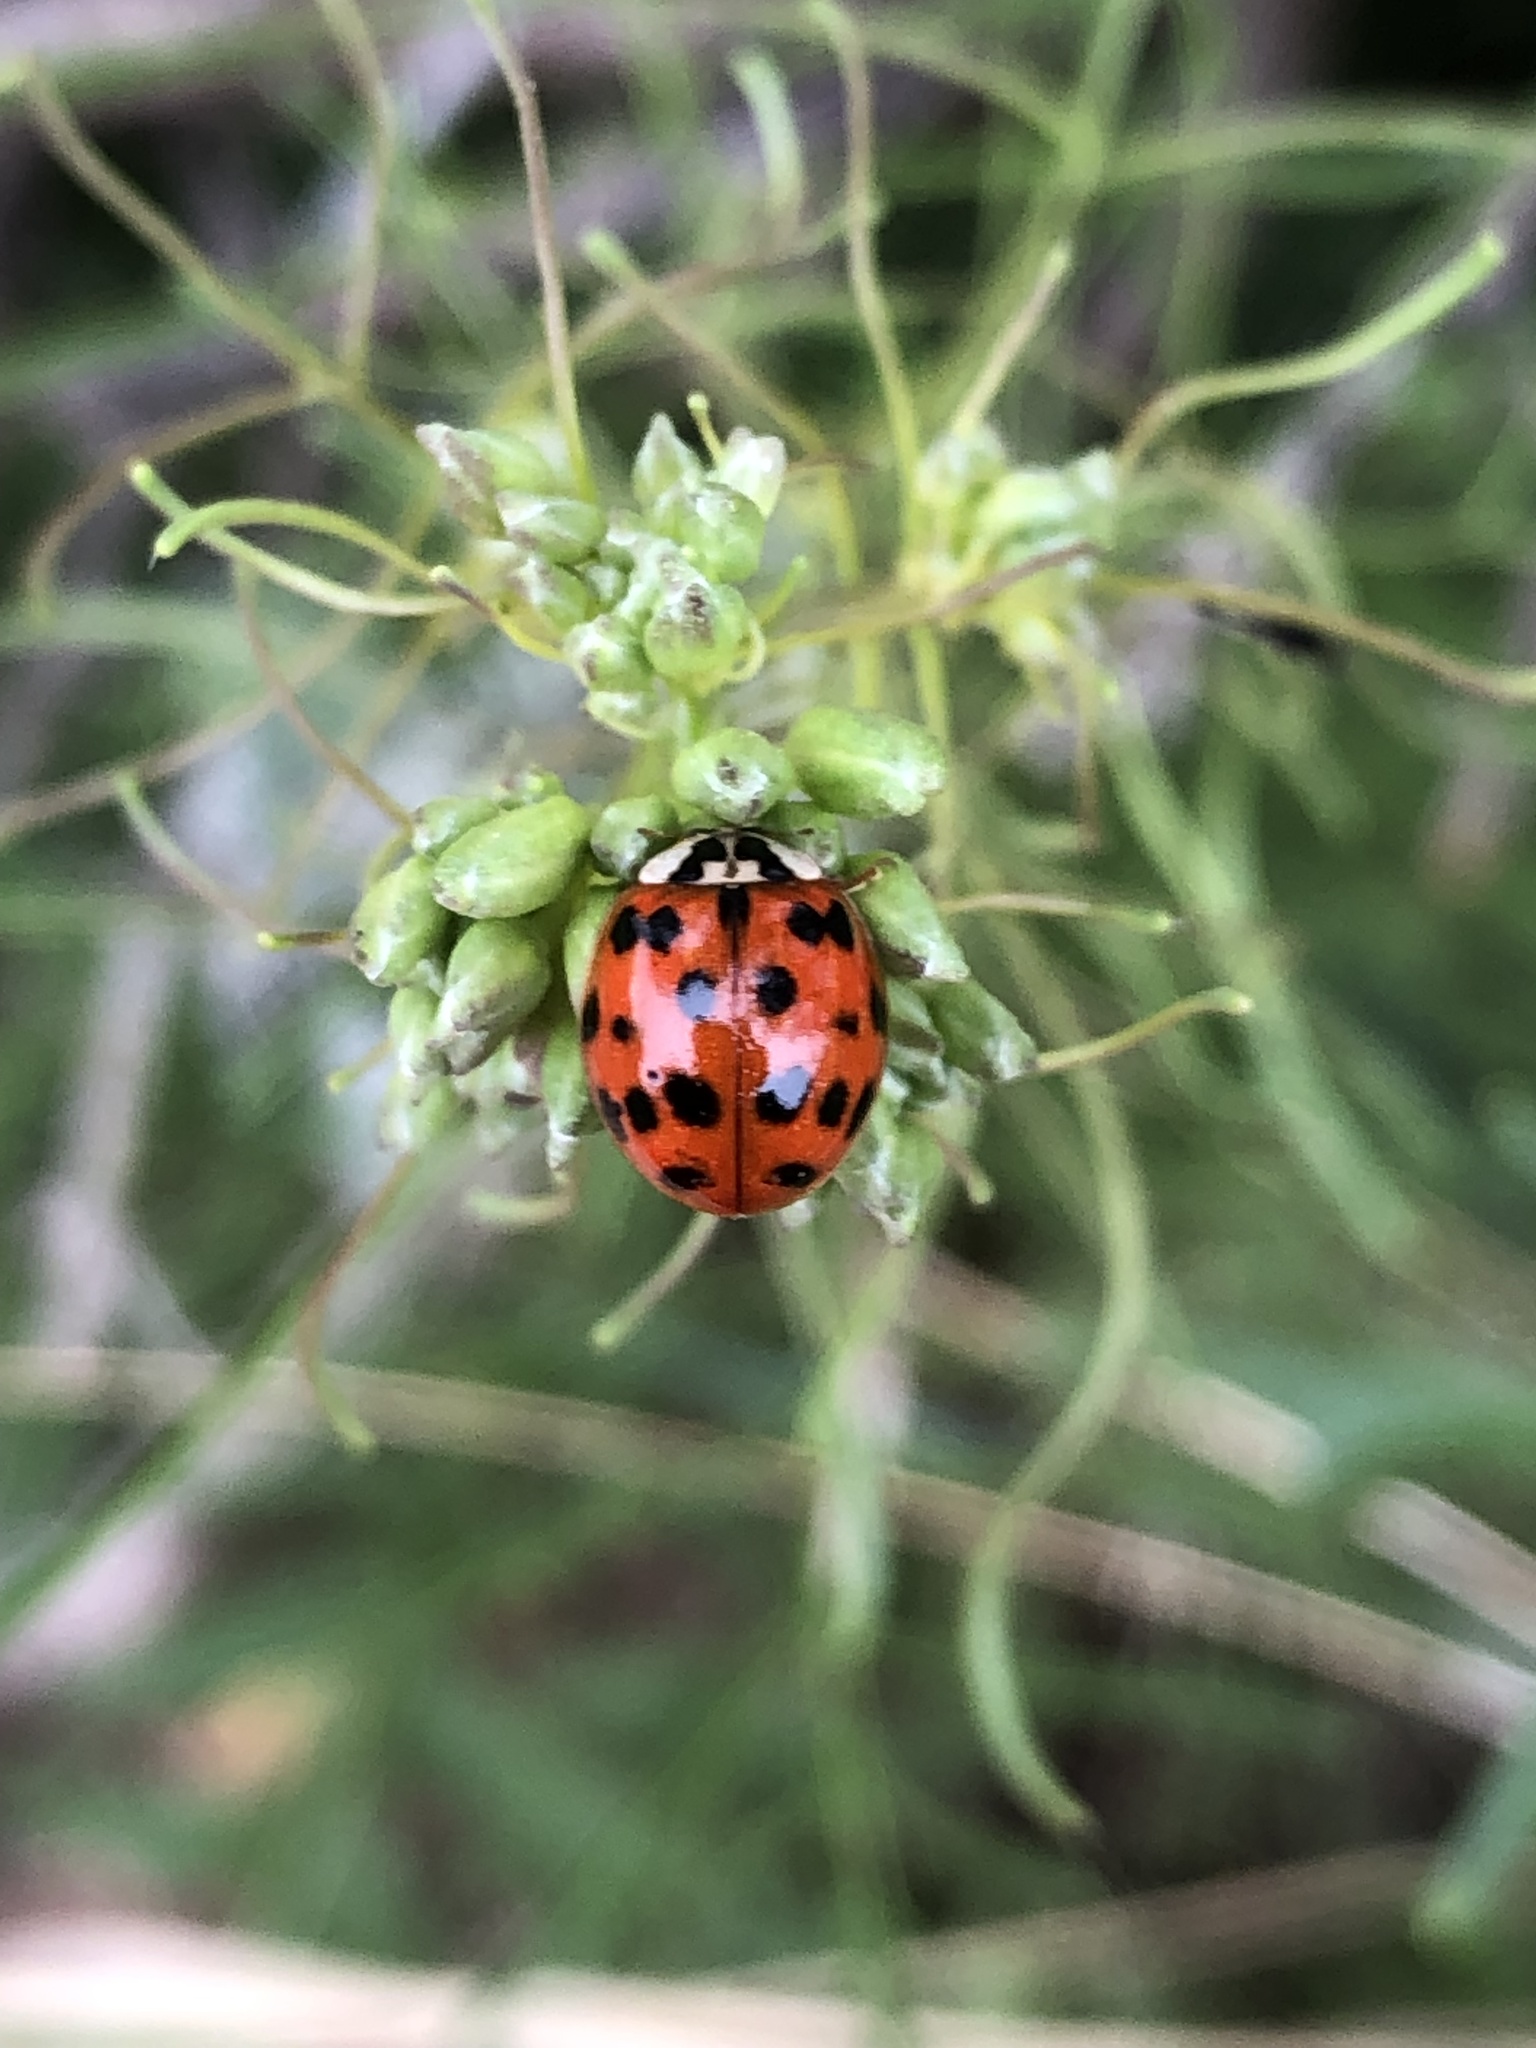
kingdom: Animalia
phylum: Arthropoda
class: Insecta
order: Coleoptera
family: Coccinellidae
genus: Harmonia
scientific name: Harmonia axyridis
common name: Harlequin ladybird
